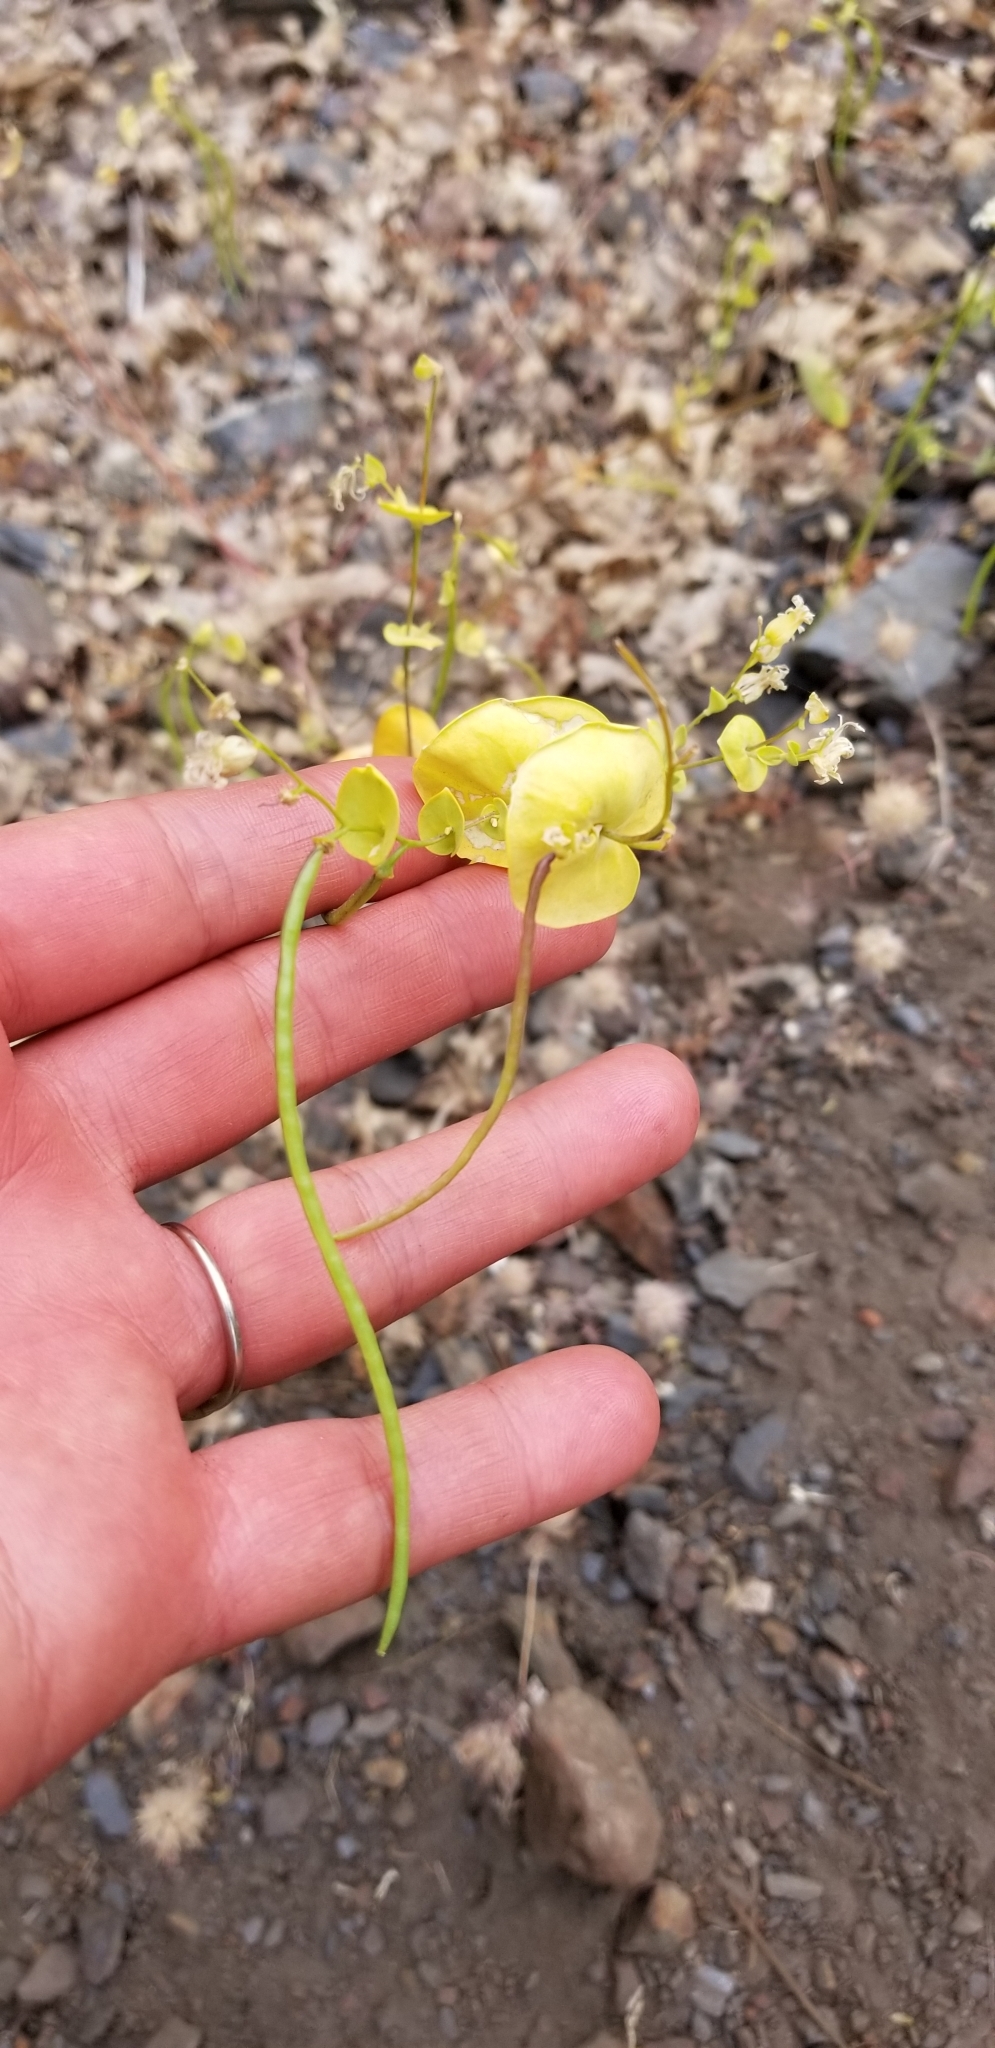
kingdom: Plantae
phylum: Tracheophyta
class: Magnoliopsida
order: Brassicales
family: Brassicaceae
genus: Streptanthus
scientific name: Streptanthus tortuosus
